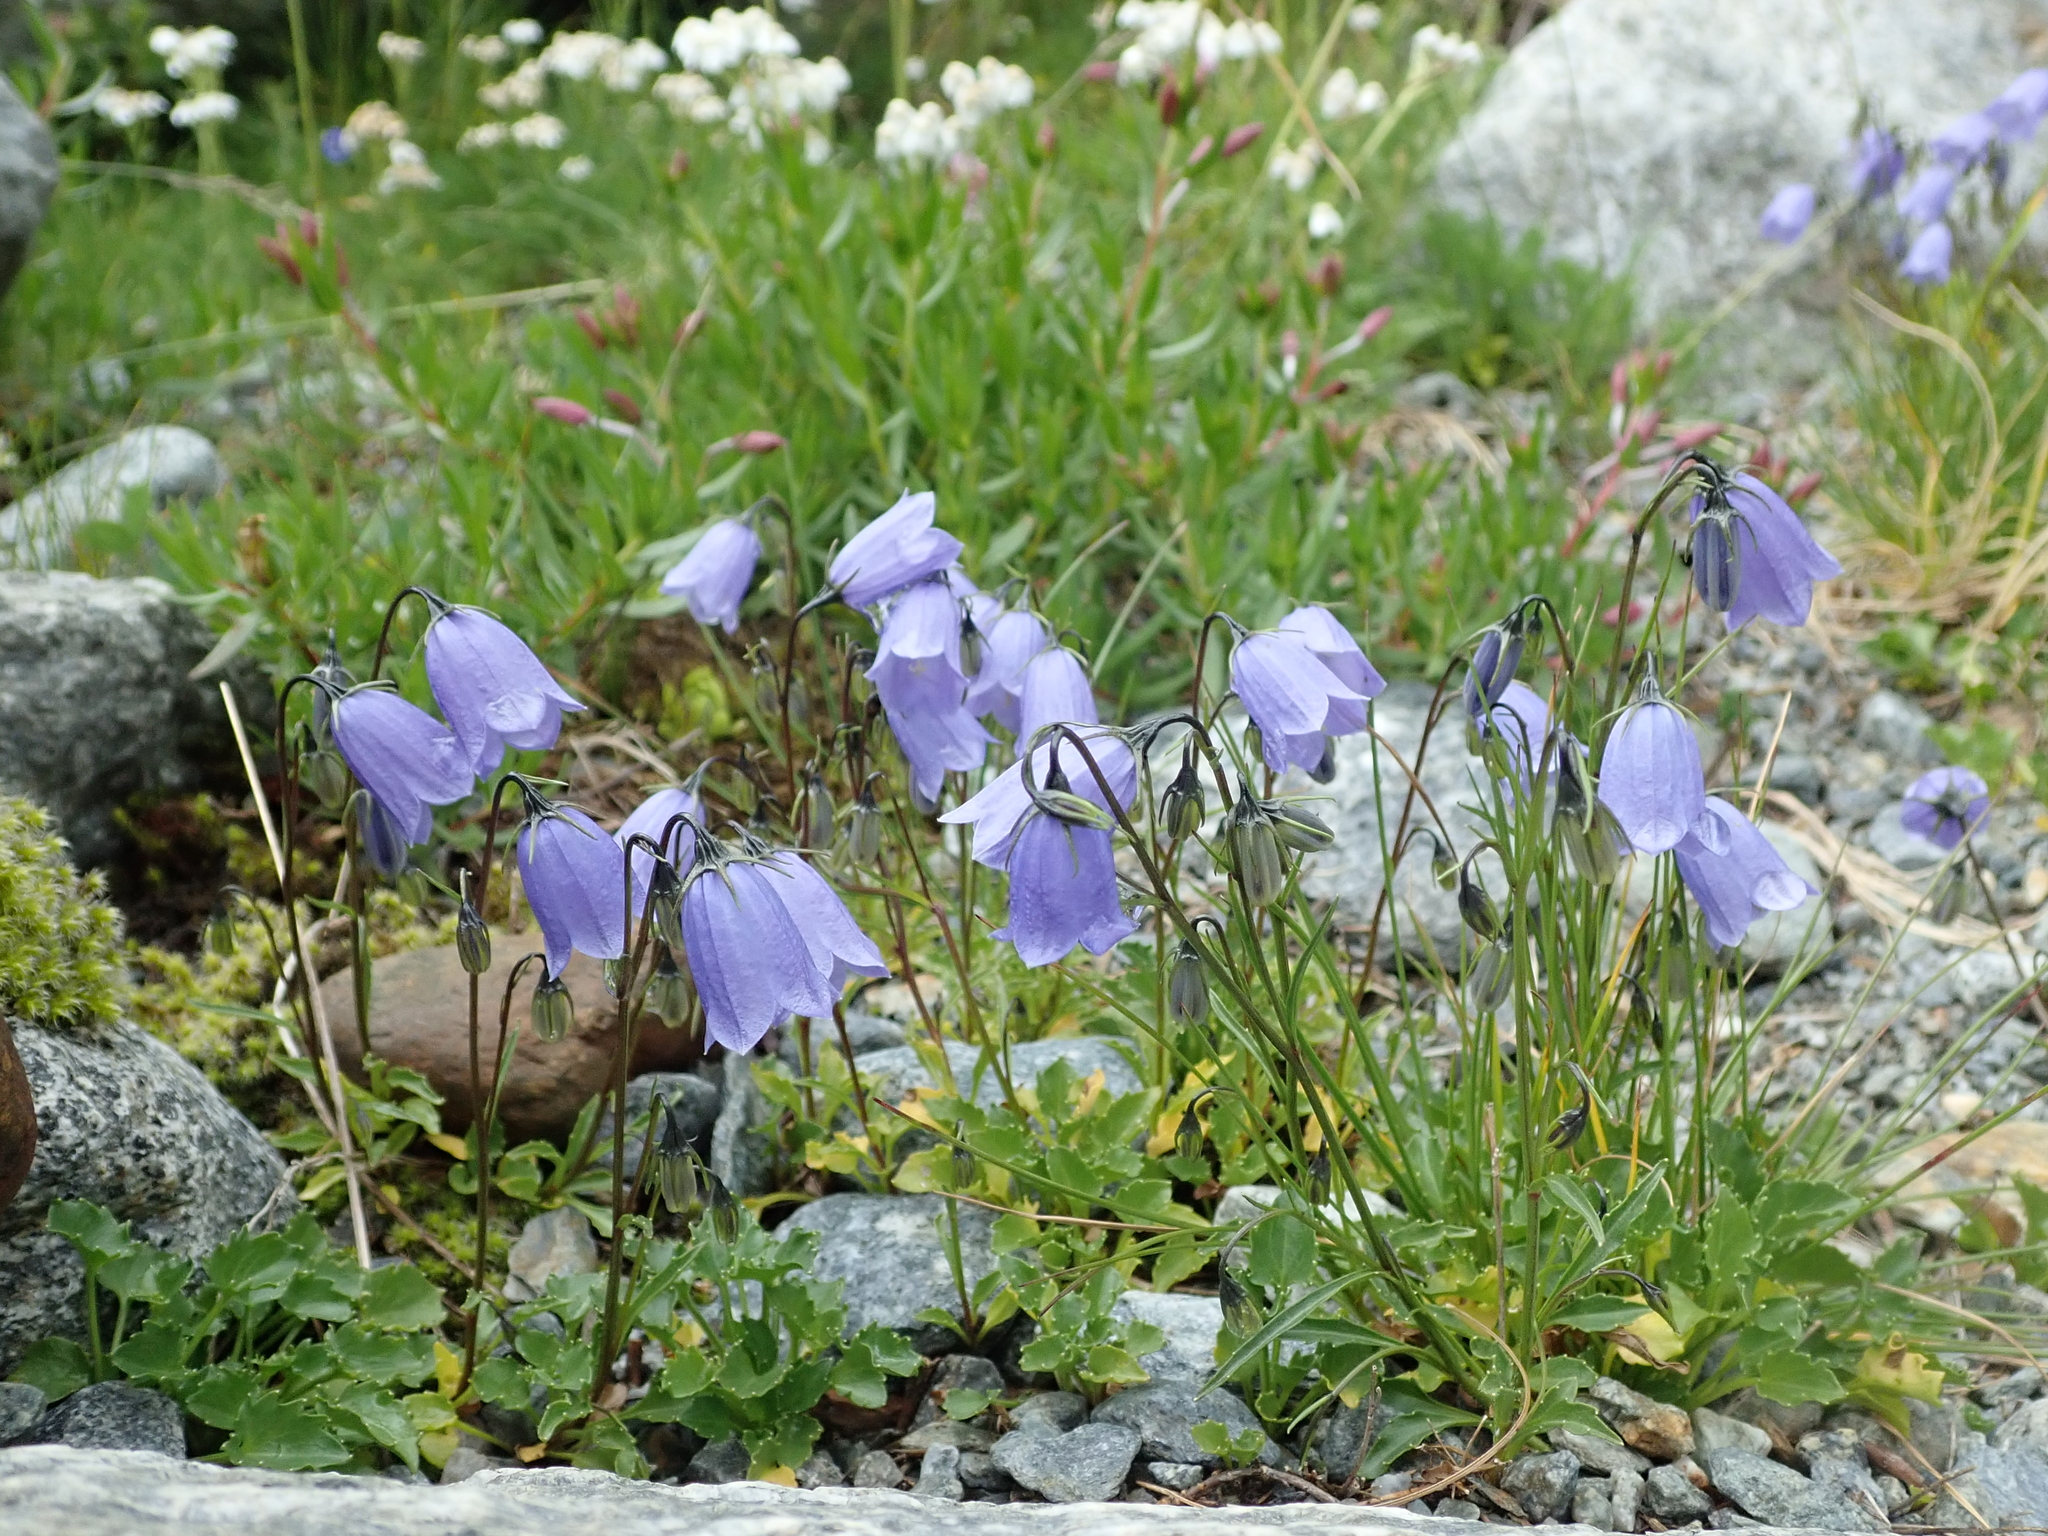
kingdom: Plantae
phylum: Tracheophyta
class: Magnoliopsida
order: Asterales
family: Campanulaceae
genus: Campanula
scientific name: Campanula cochleariifolia
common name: Fairies'-thimbles
